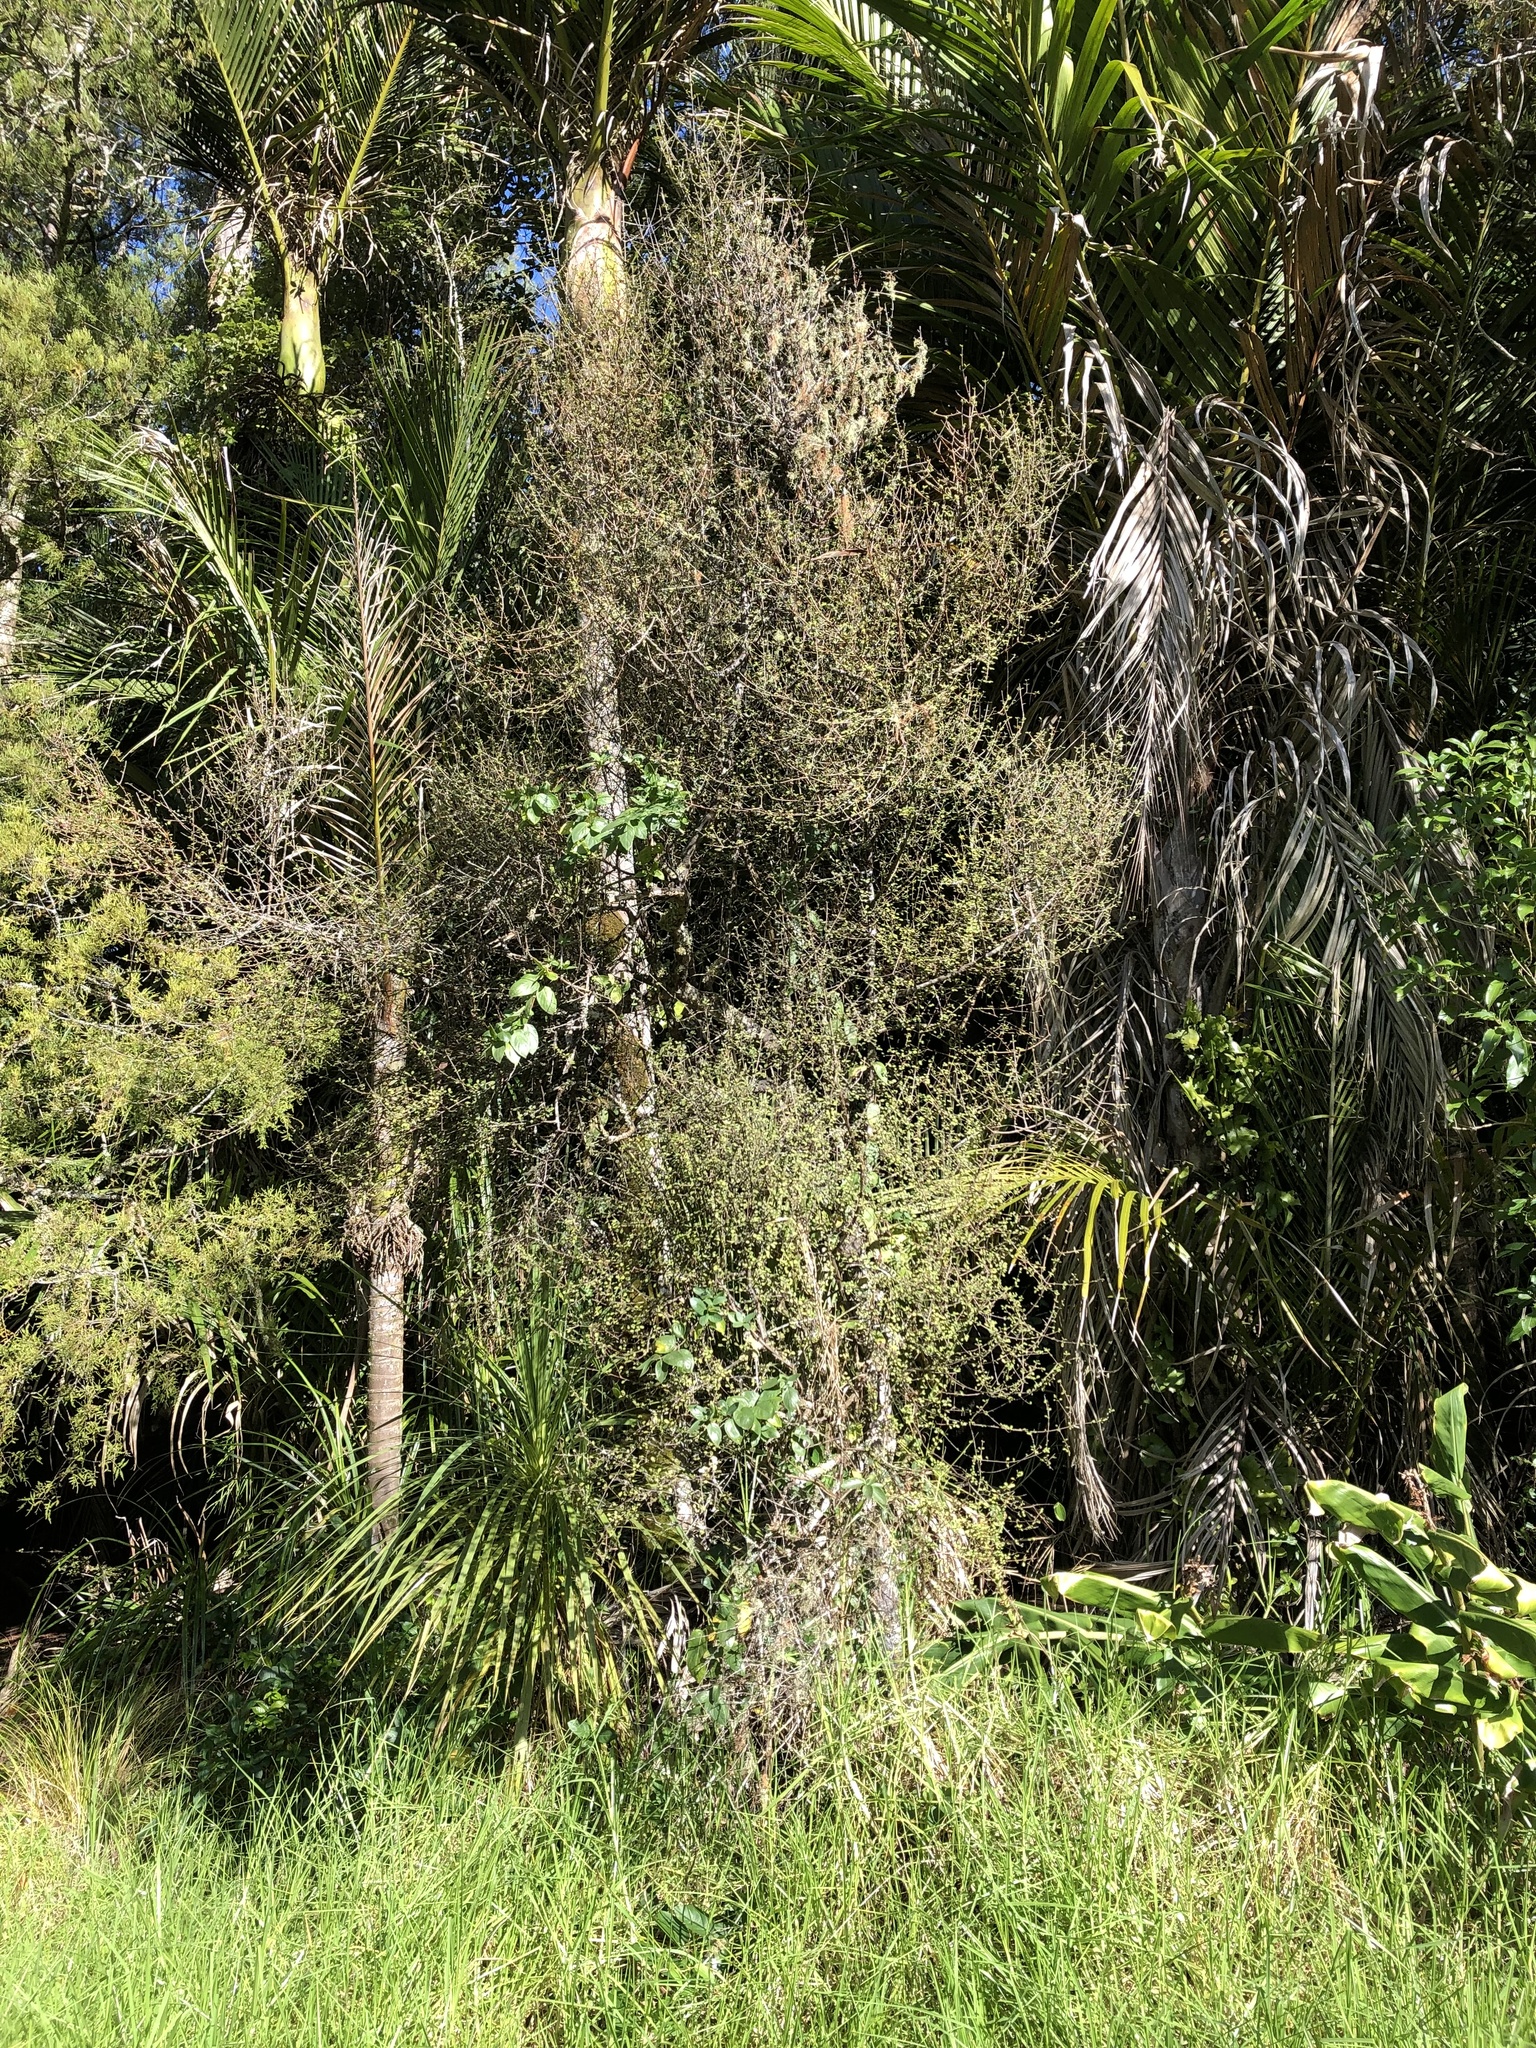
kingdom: Plantae
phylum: Tracheophyta
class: Magnoliopsida
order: Gentianales
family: Rubiaceae
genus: Coprosma
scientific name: Coprosma rigida
